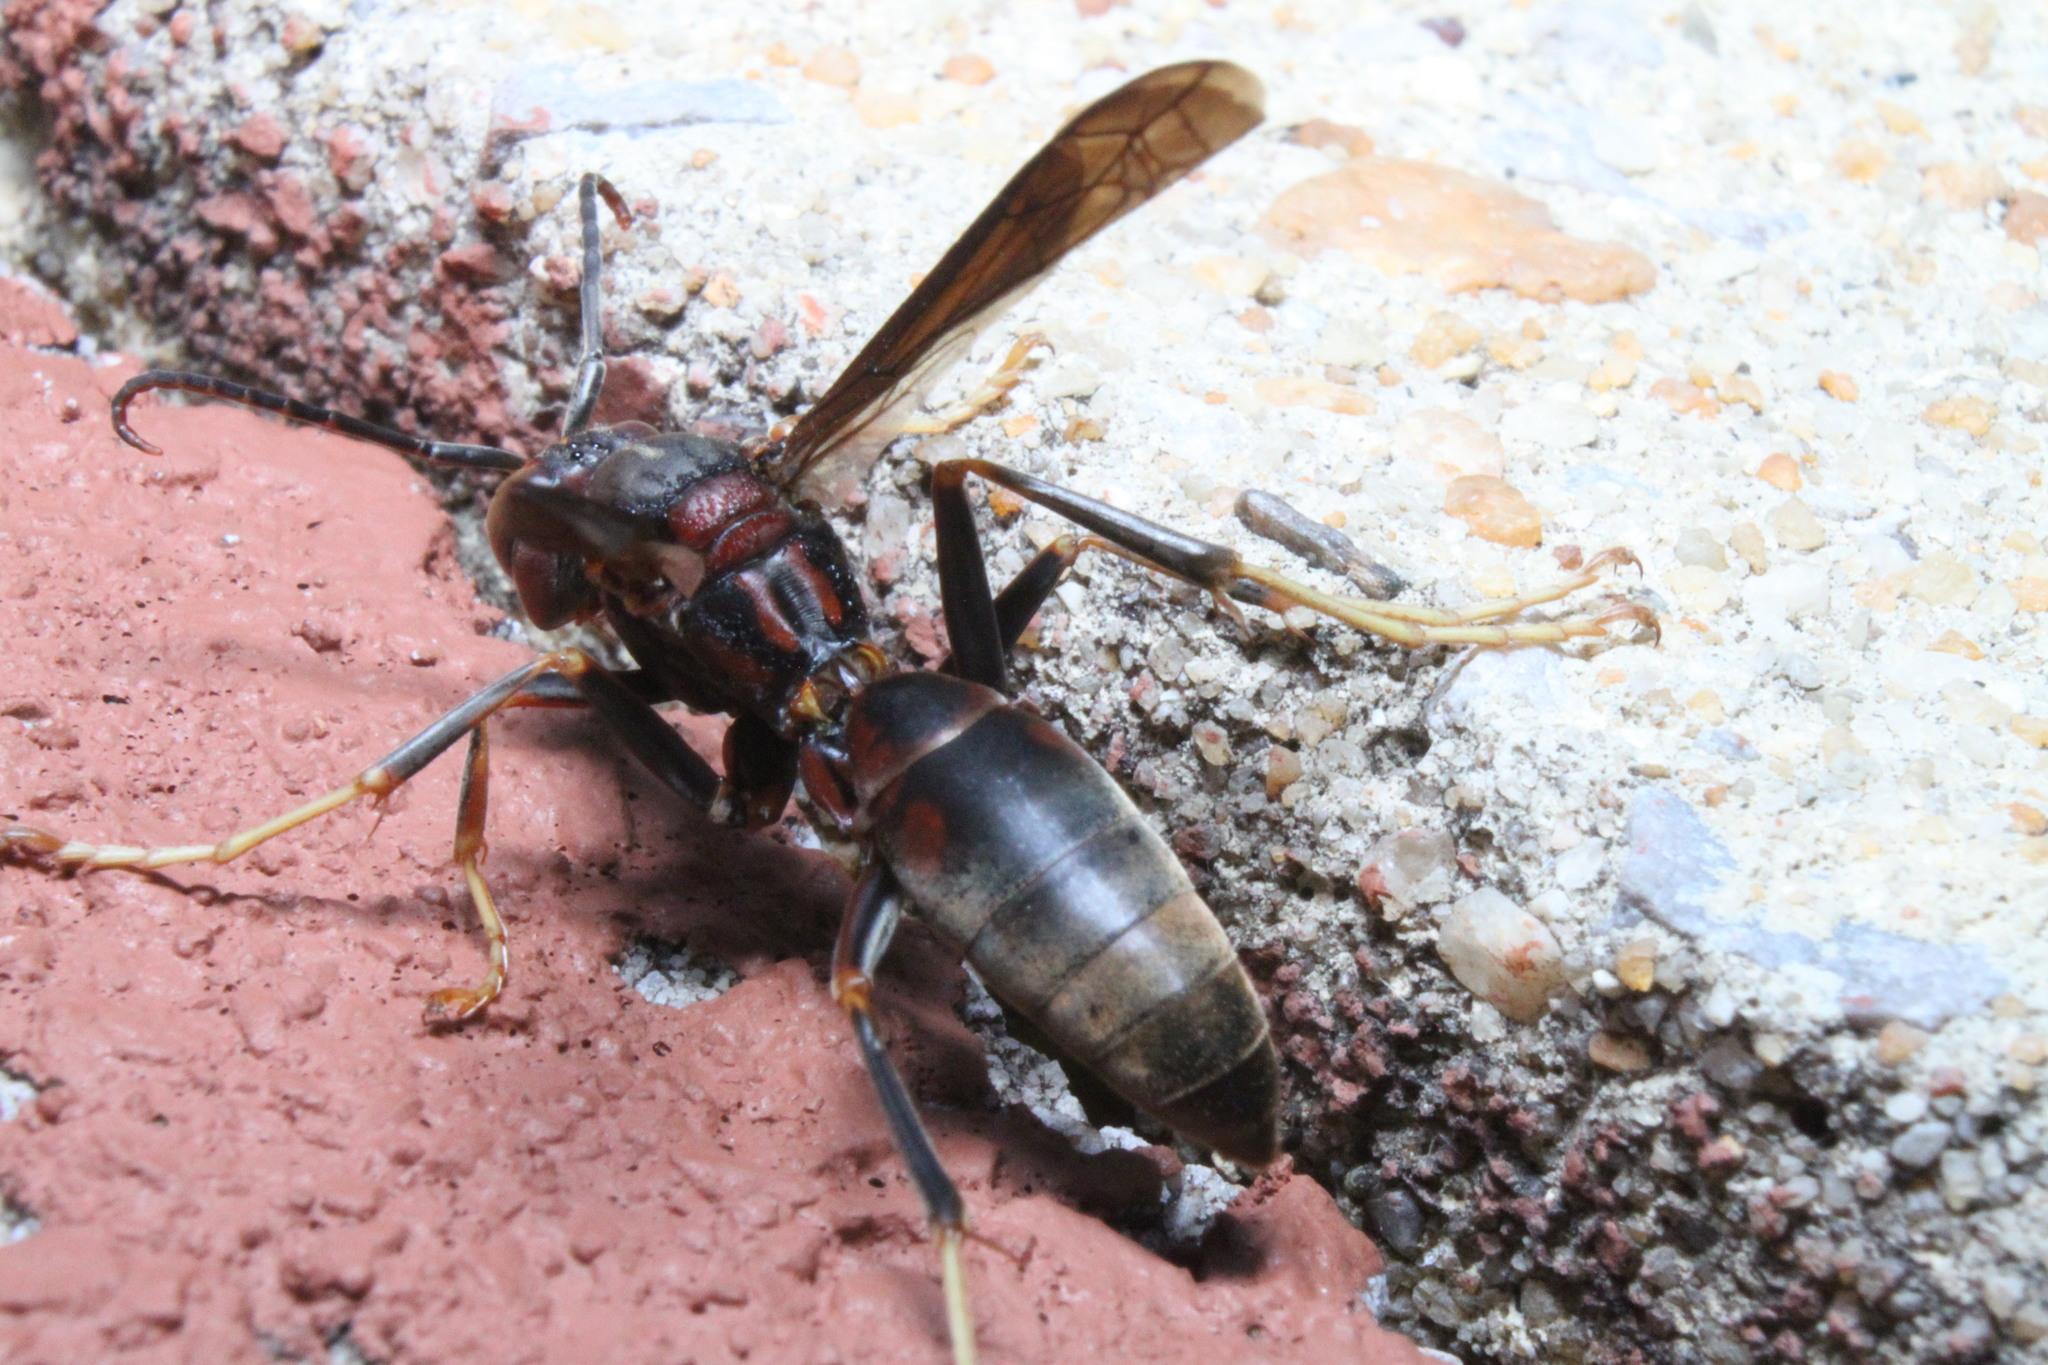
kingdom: Animalia
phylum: Arthropoda
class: Insecta
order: Hymenoptera
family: Eumenidae
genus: Polistes
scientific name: Polistes metricus
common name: Metric paper wasp
